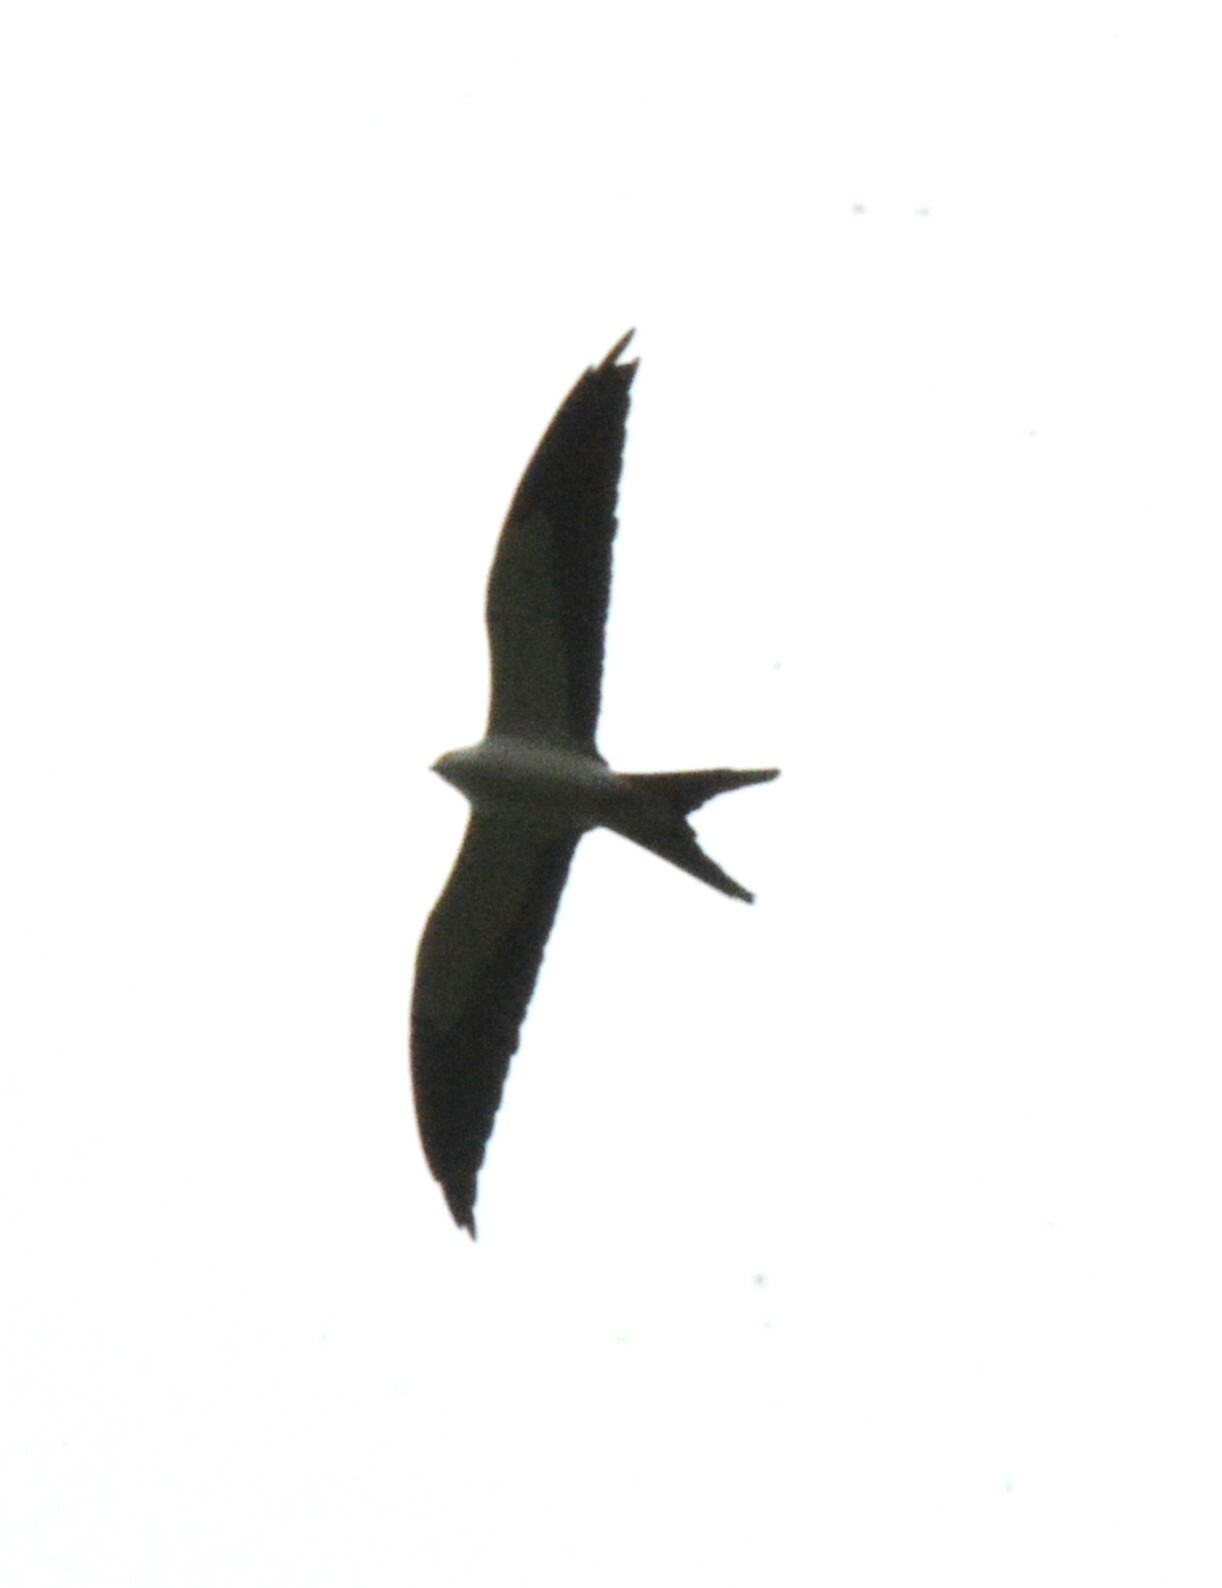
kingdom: Animalia
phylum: Chordata
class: Aves
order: Accipitriformes
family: Accipitridae
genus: Elanoides
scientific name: Elanoides forficatus
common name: Swallow-tailed kite
